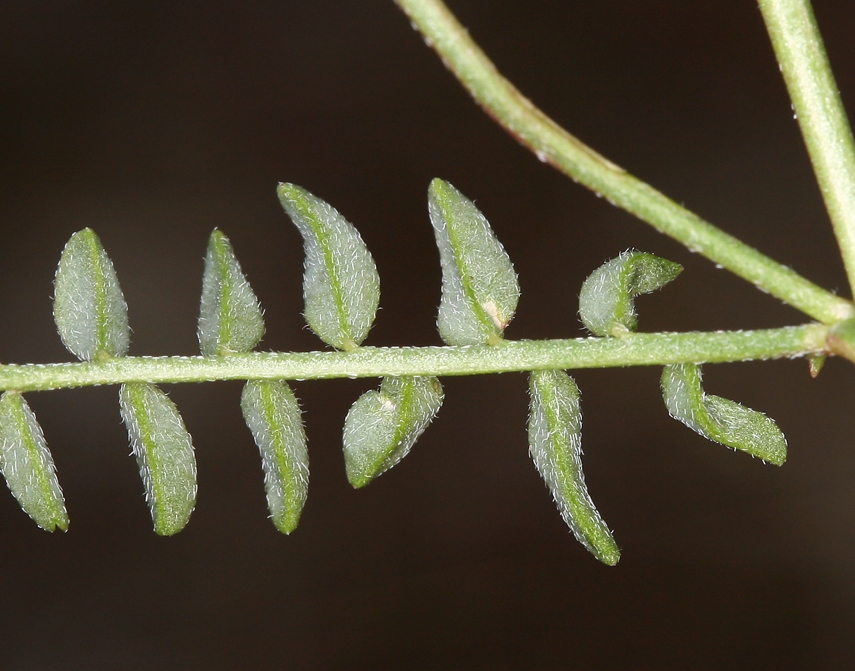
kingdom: Plantae
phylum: Tracheophyta
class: Magnoliopsida
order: Fabales
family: Fabaceae
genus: Astragalus
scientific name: Astragalus inyoensis
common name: Inyo locoweed
